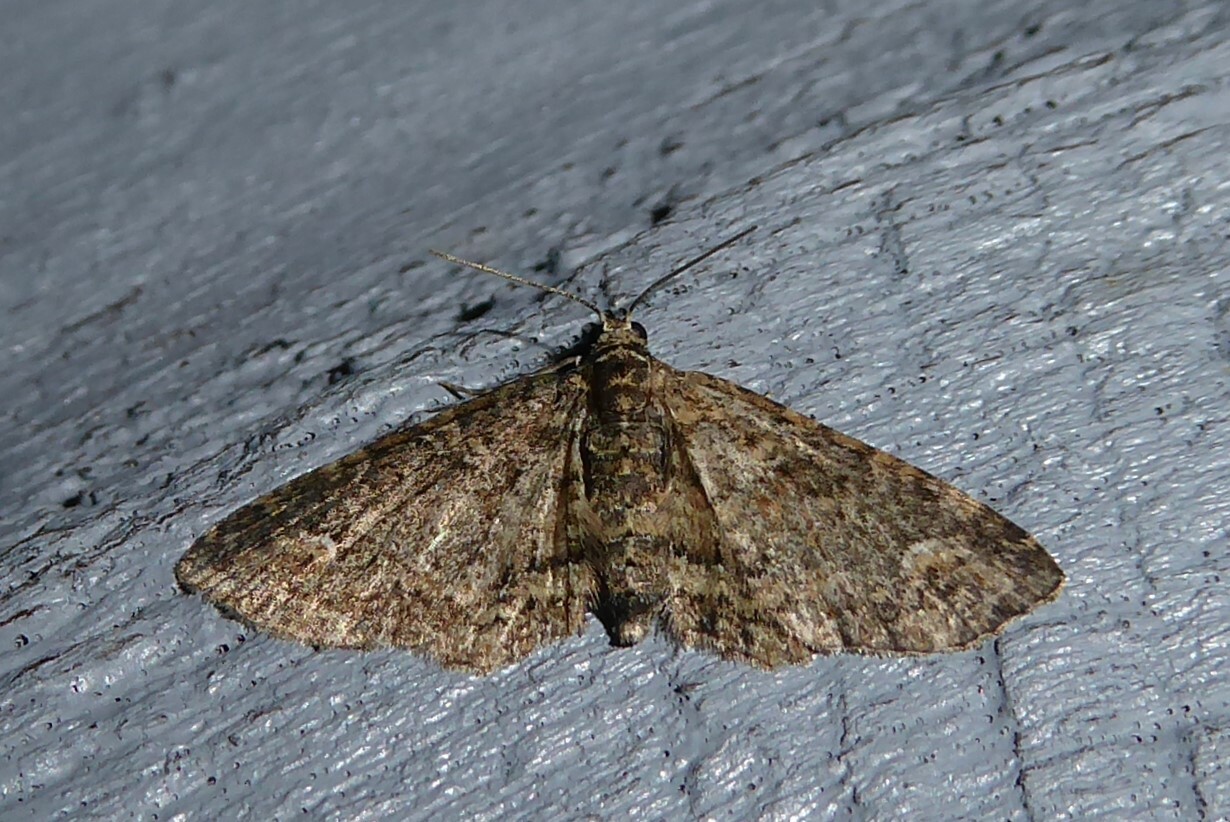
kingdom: Animalia
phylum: Arthropoda
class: Insecta
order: Lepidoptera
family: Geometridae
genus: Pasiphilodes
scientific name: Pasiphilodes testulata
